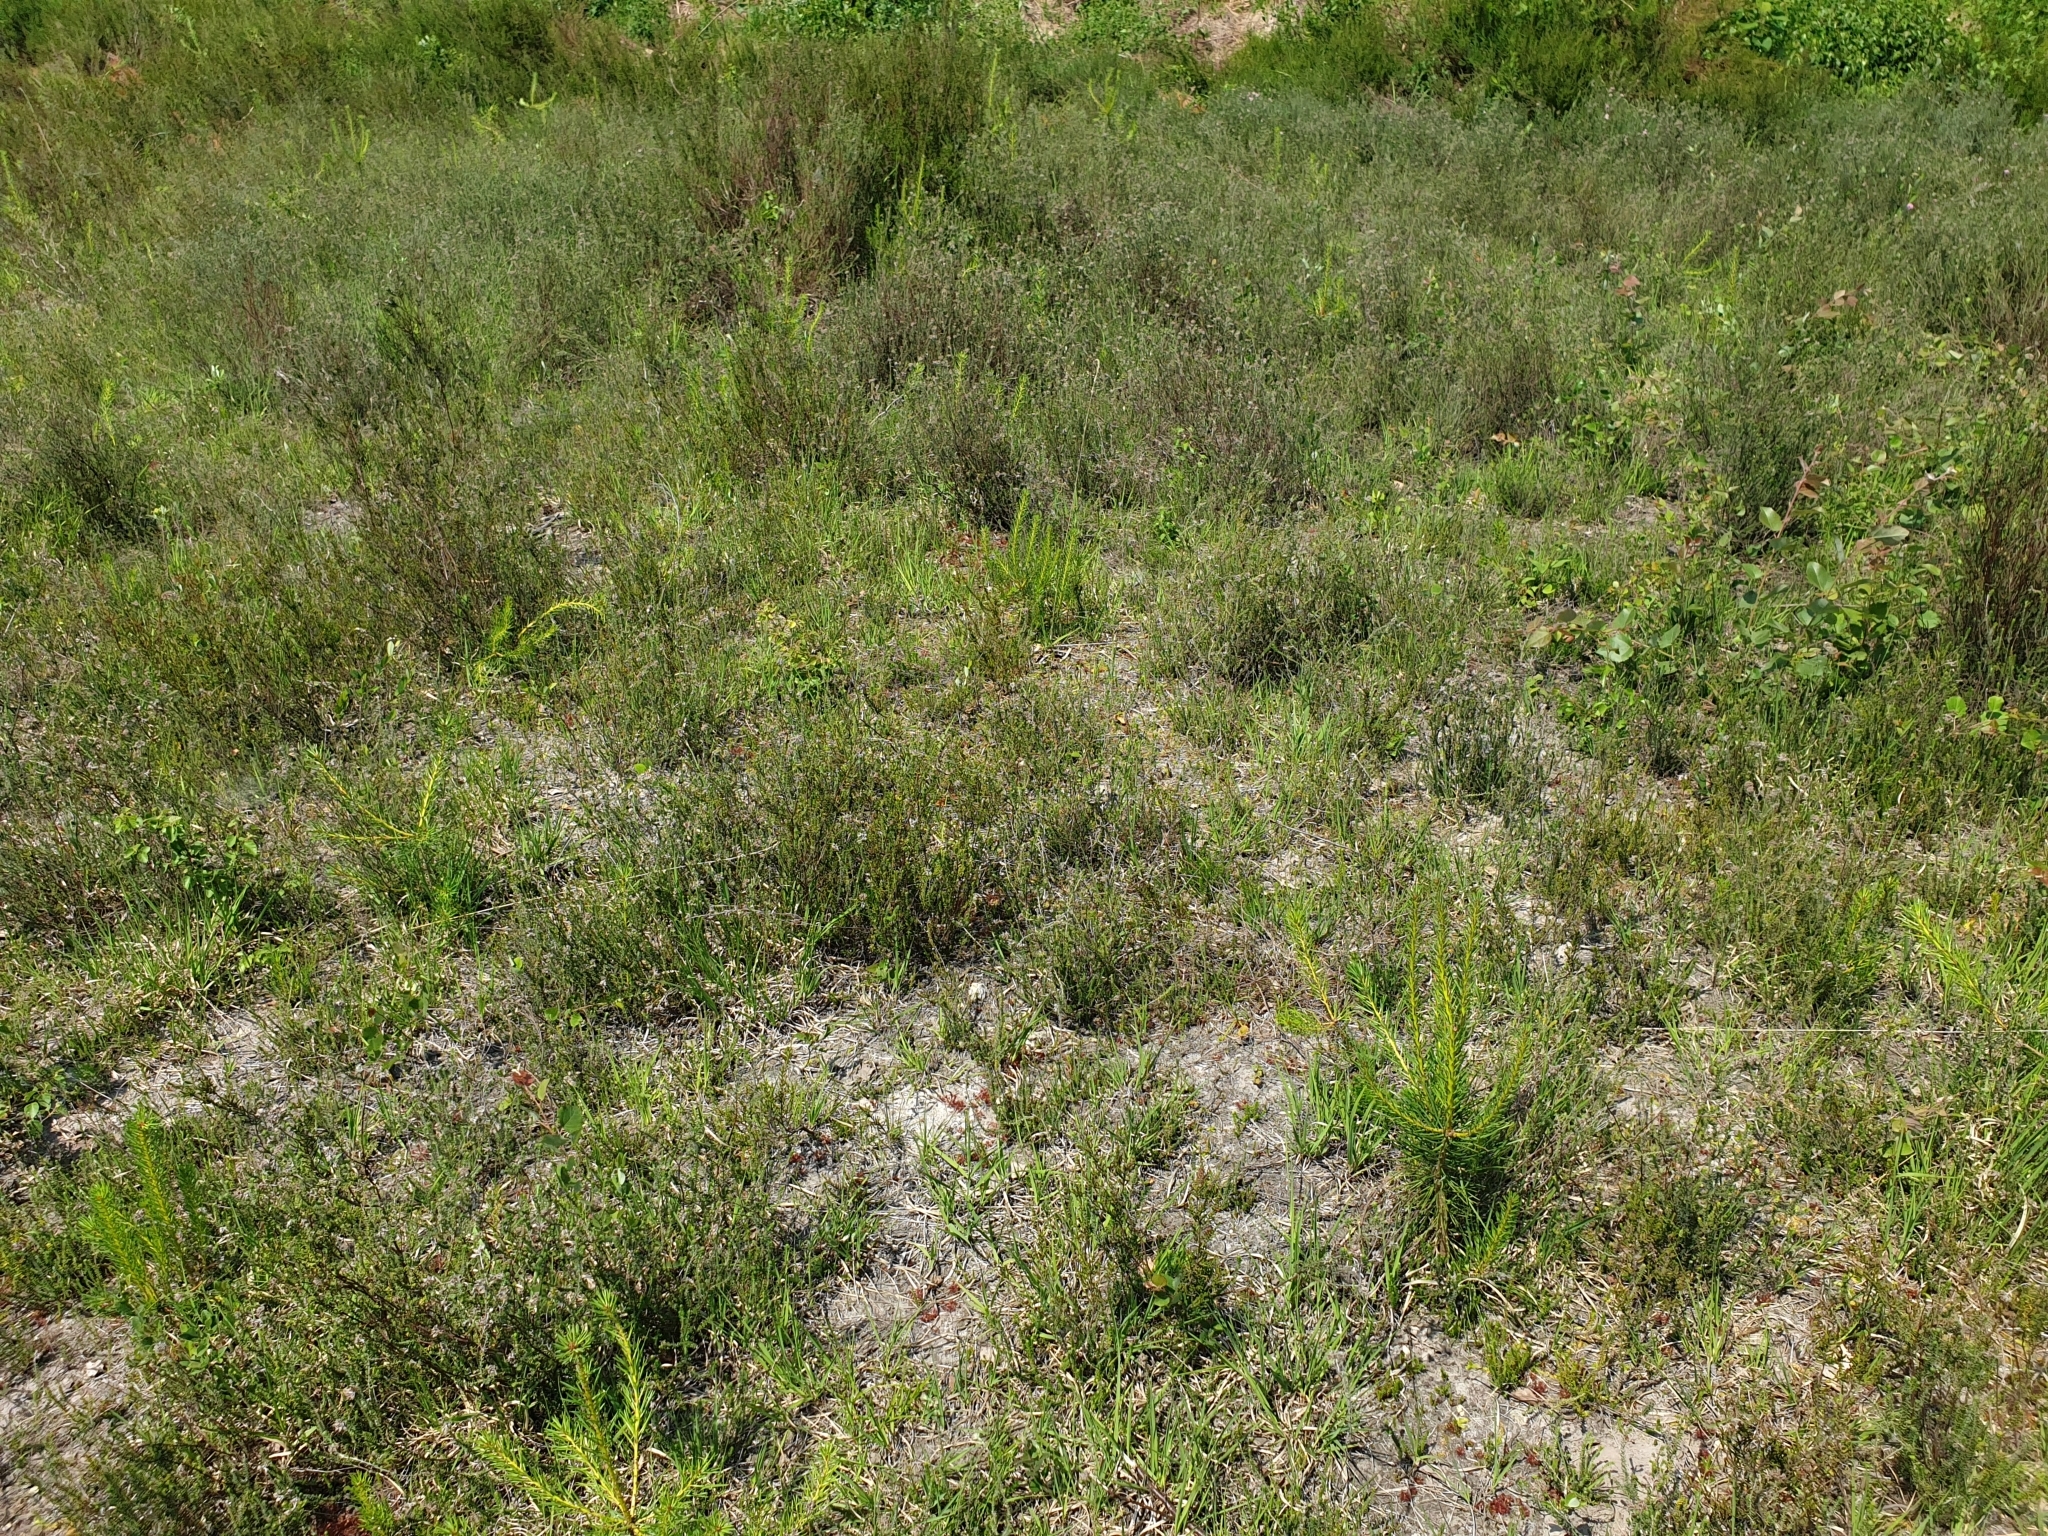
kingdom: Plantae
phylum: Tracheophyta
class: Magnoliopsida
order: Caryophyllales
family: Droseraceae
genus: Drosera
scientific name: Drosera rotundifolia
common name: Round-leaved sundew
